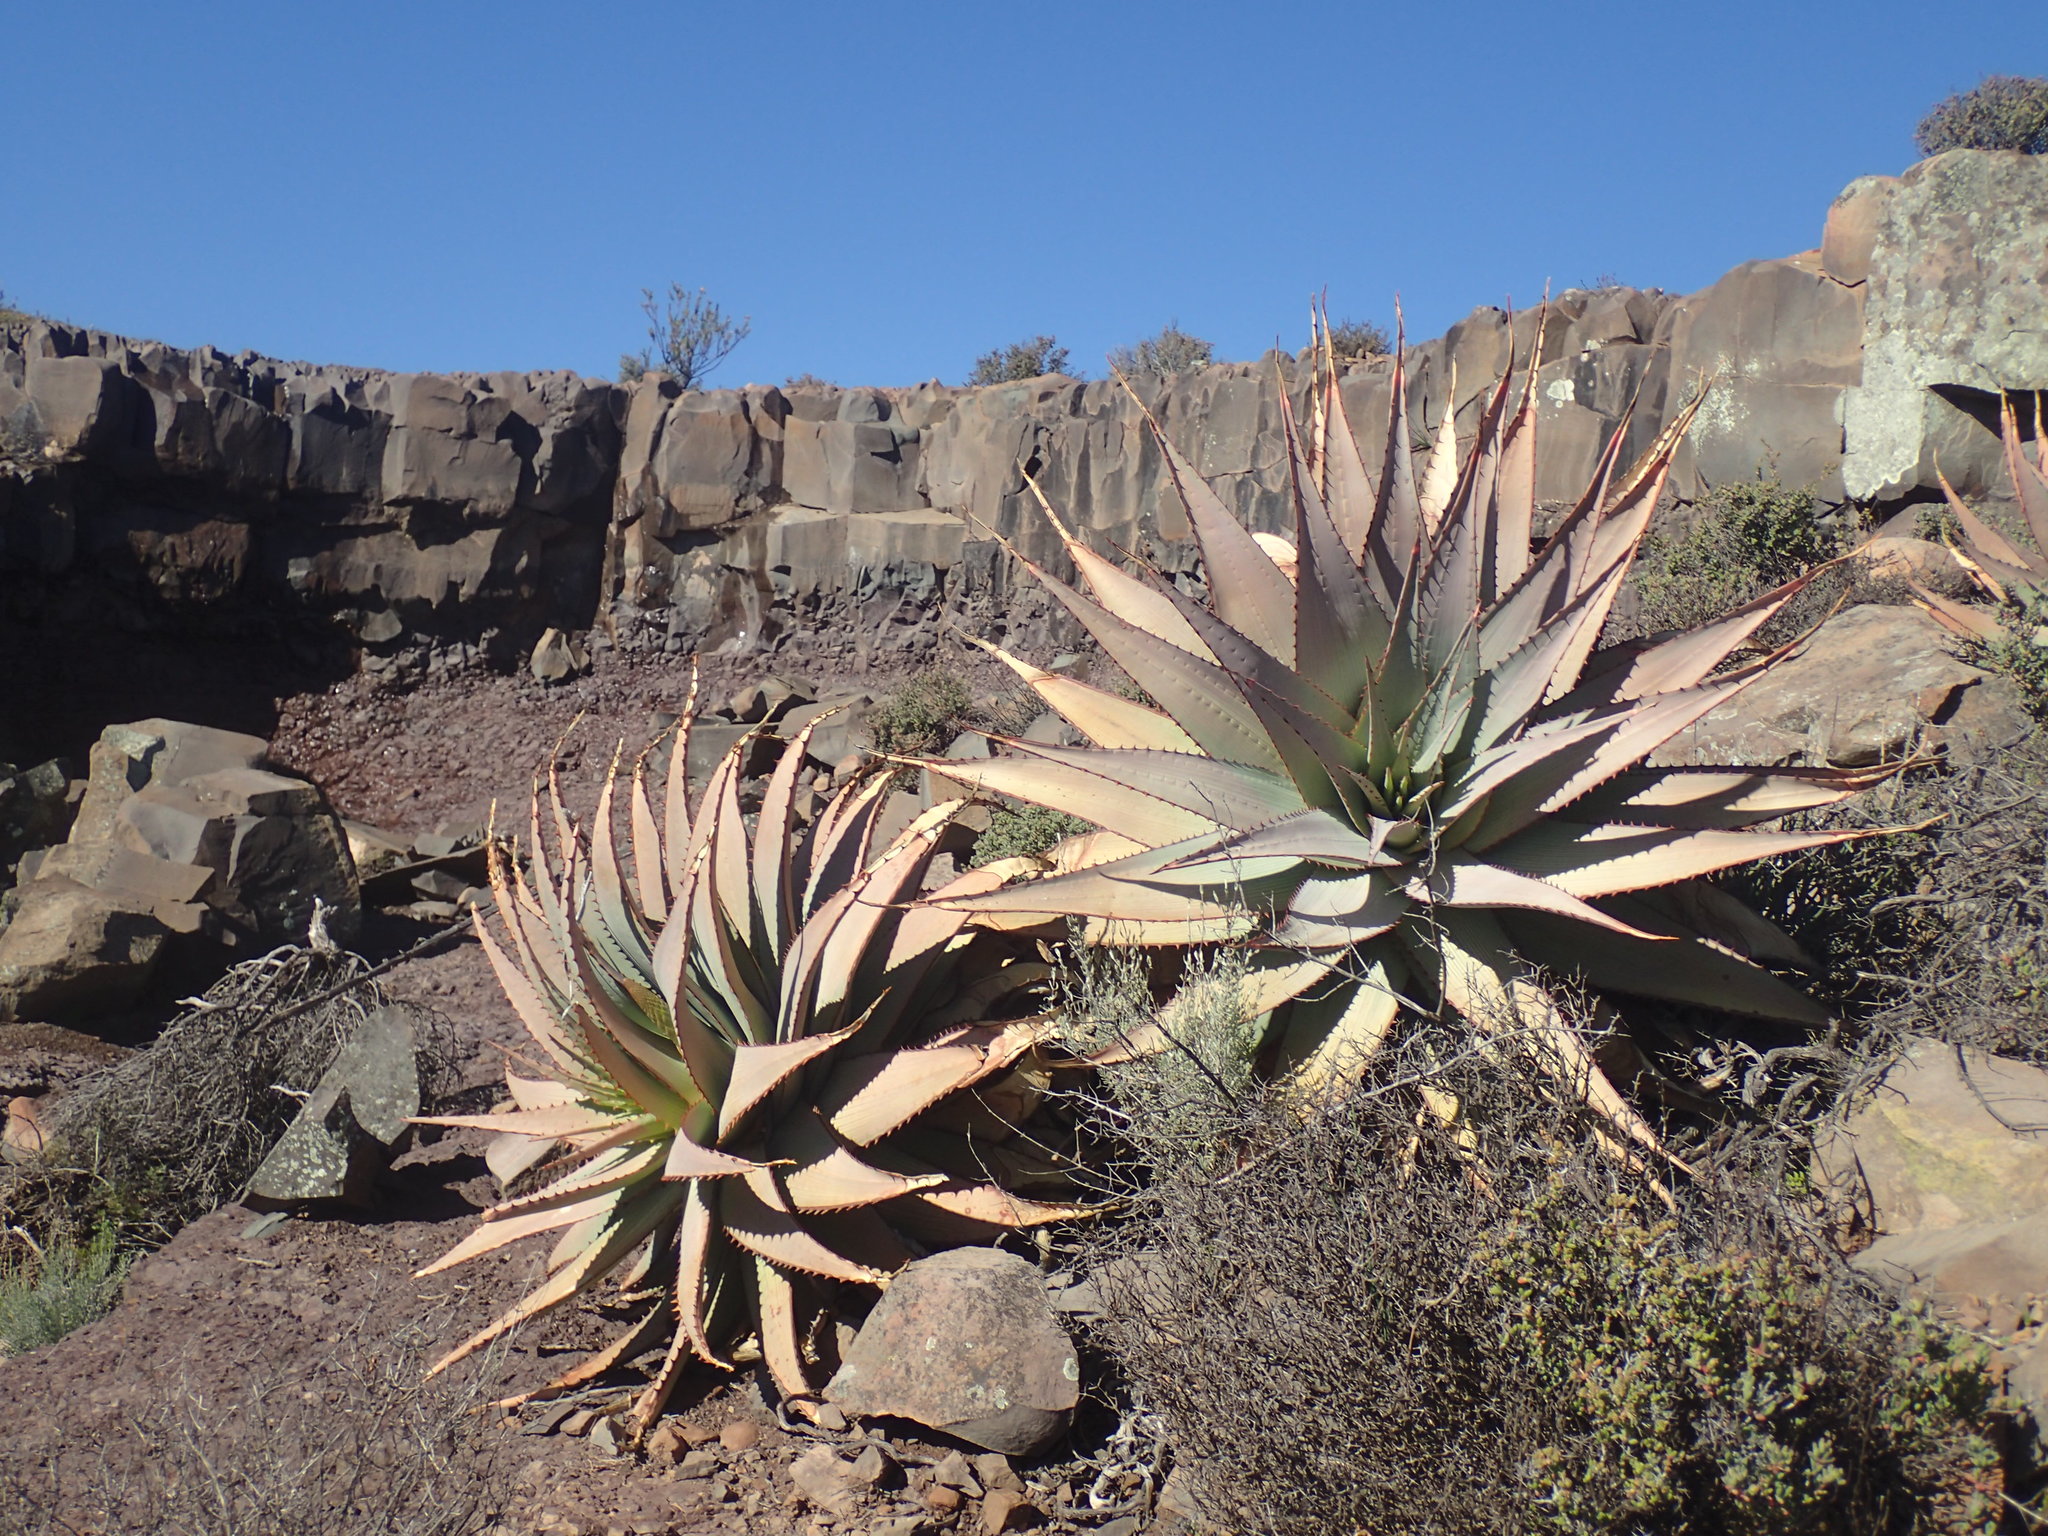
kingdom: Plantae
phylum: Tracheophyta
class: Liliopsida
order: Asparagales
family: Asphodelaceae
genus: Aloe
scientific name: Aloe glauca
